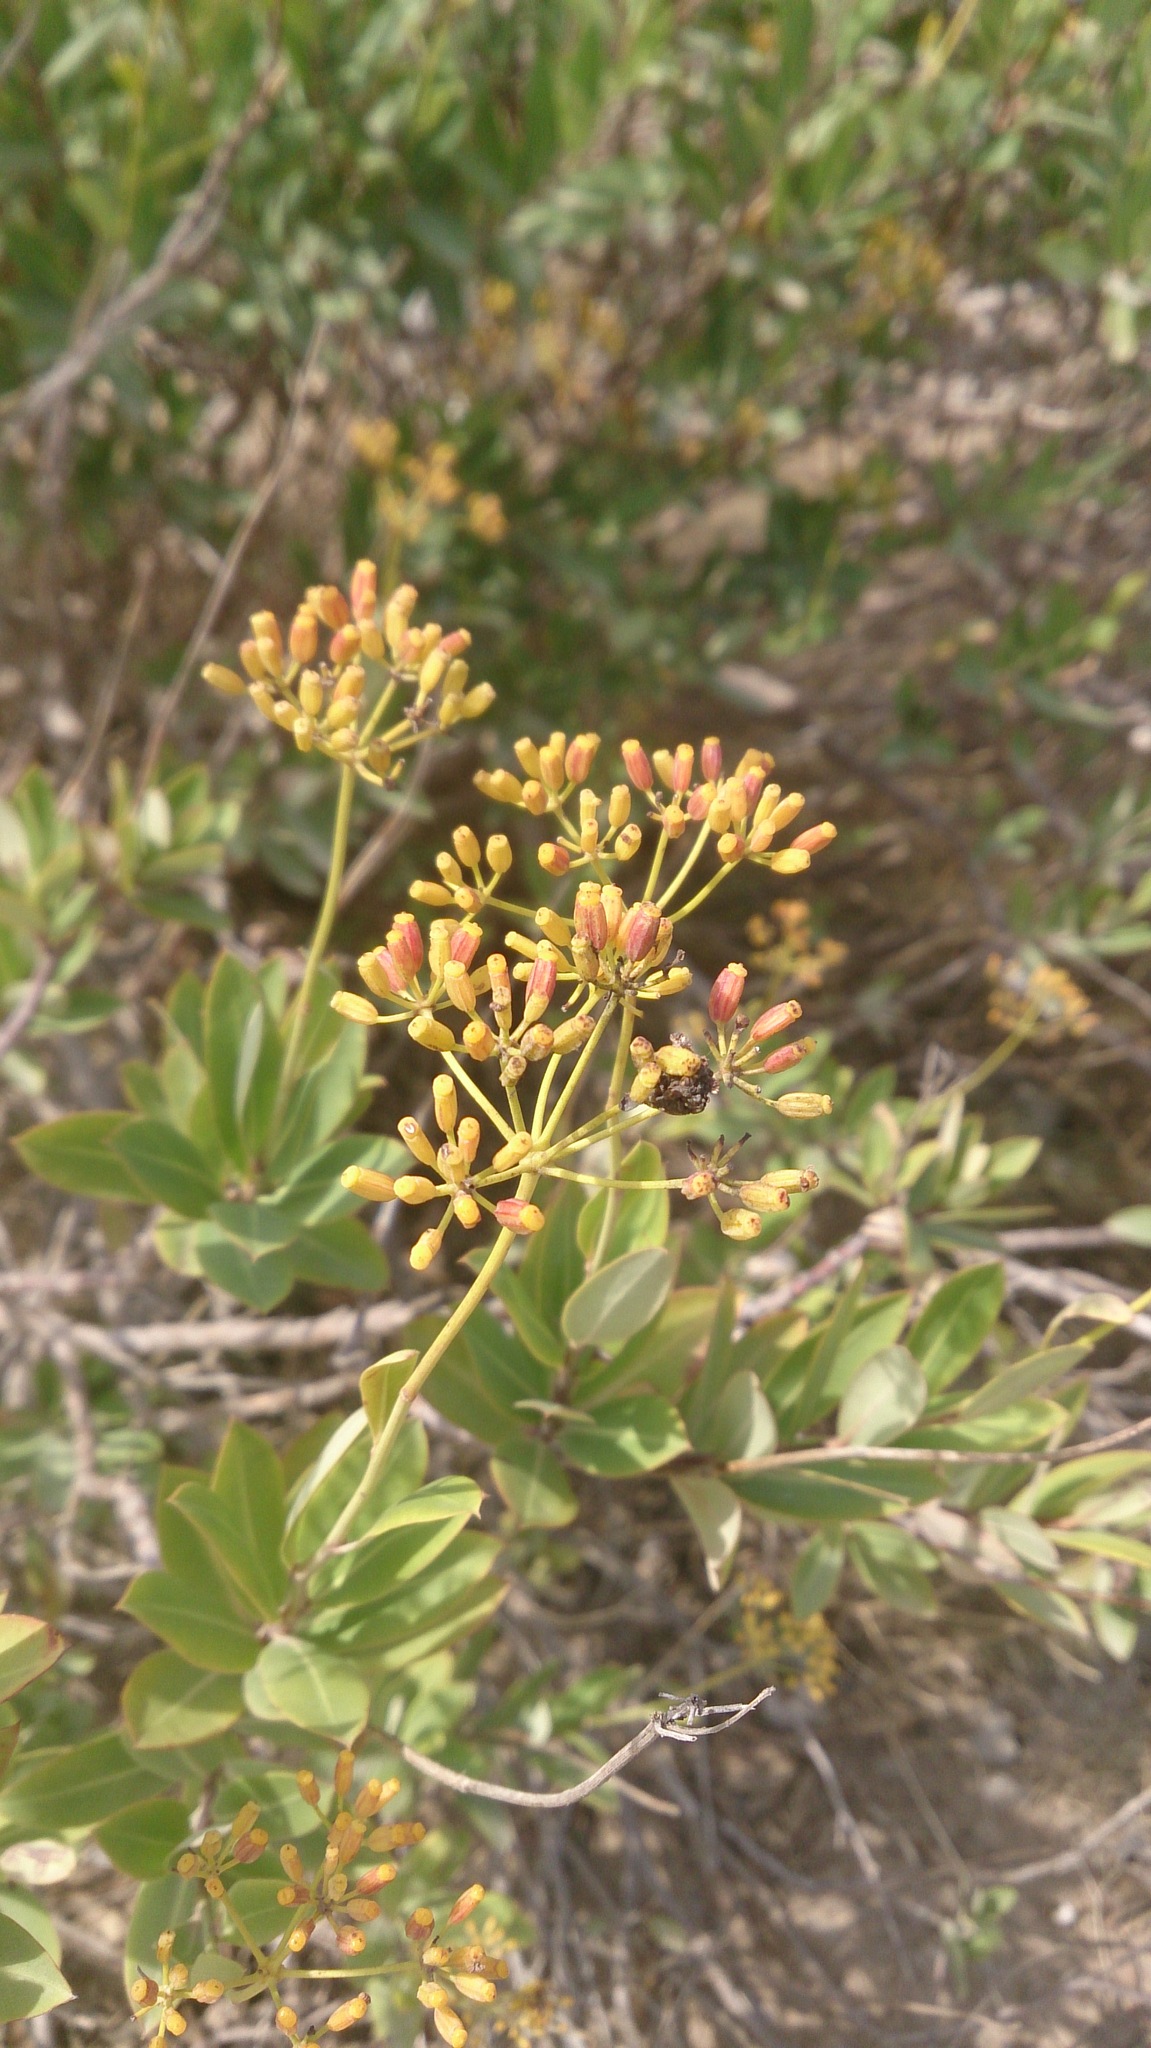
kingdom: Plantae
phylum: Tracheophyta
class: Magnoliopsida
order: Apiales
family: Apiaceae
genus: Bupleurum
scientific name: Bupleurum fruticosum
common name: Shrubby hare's-ear
